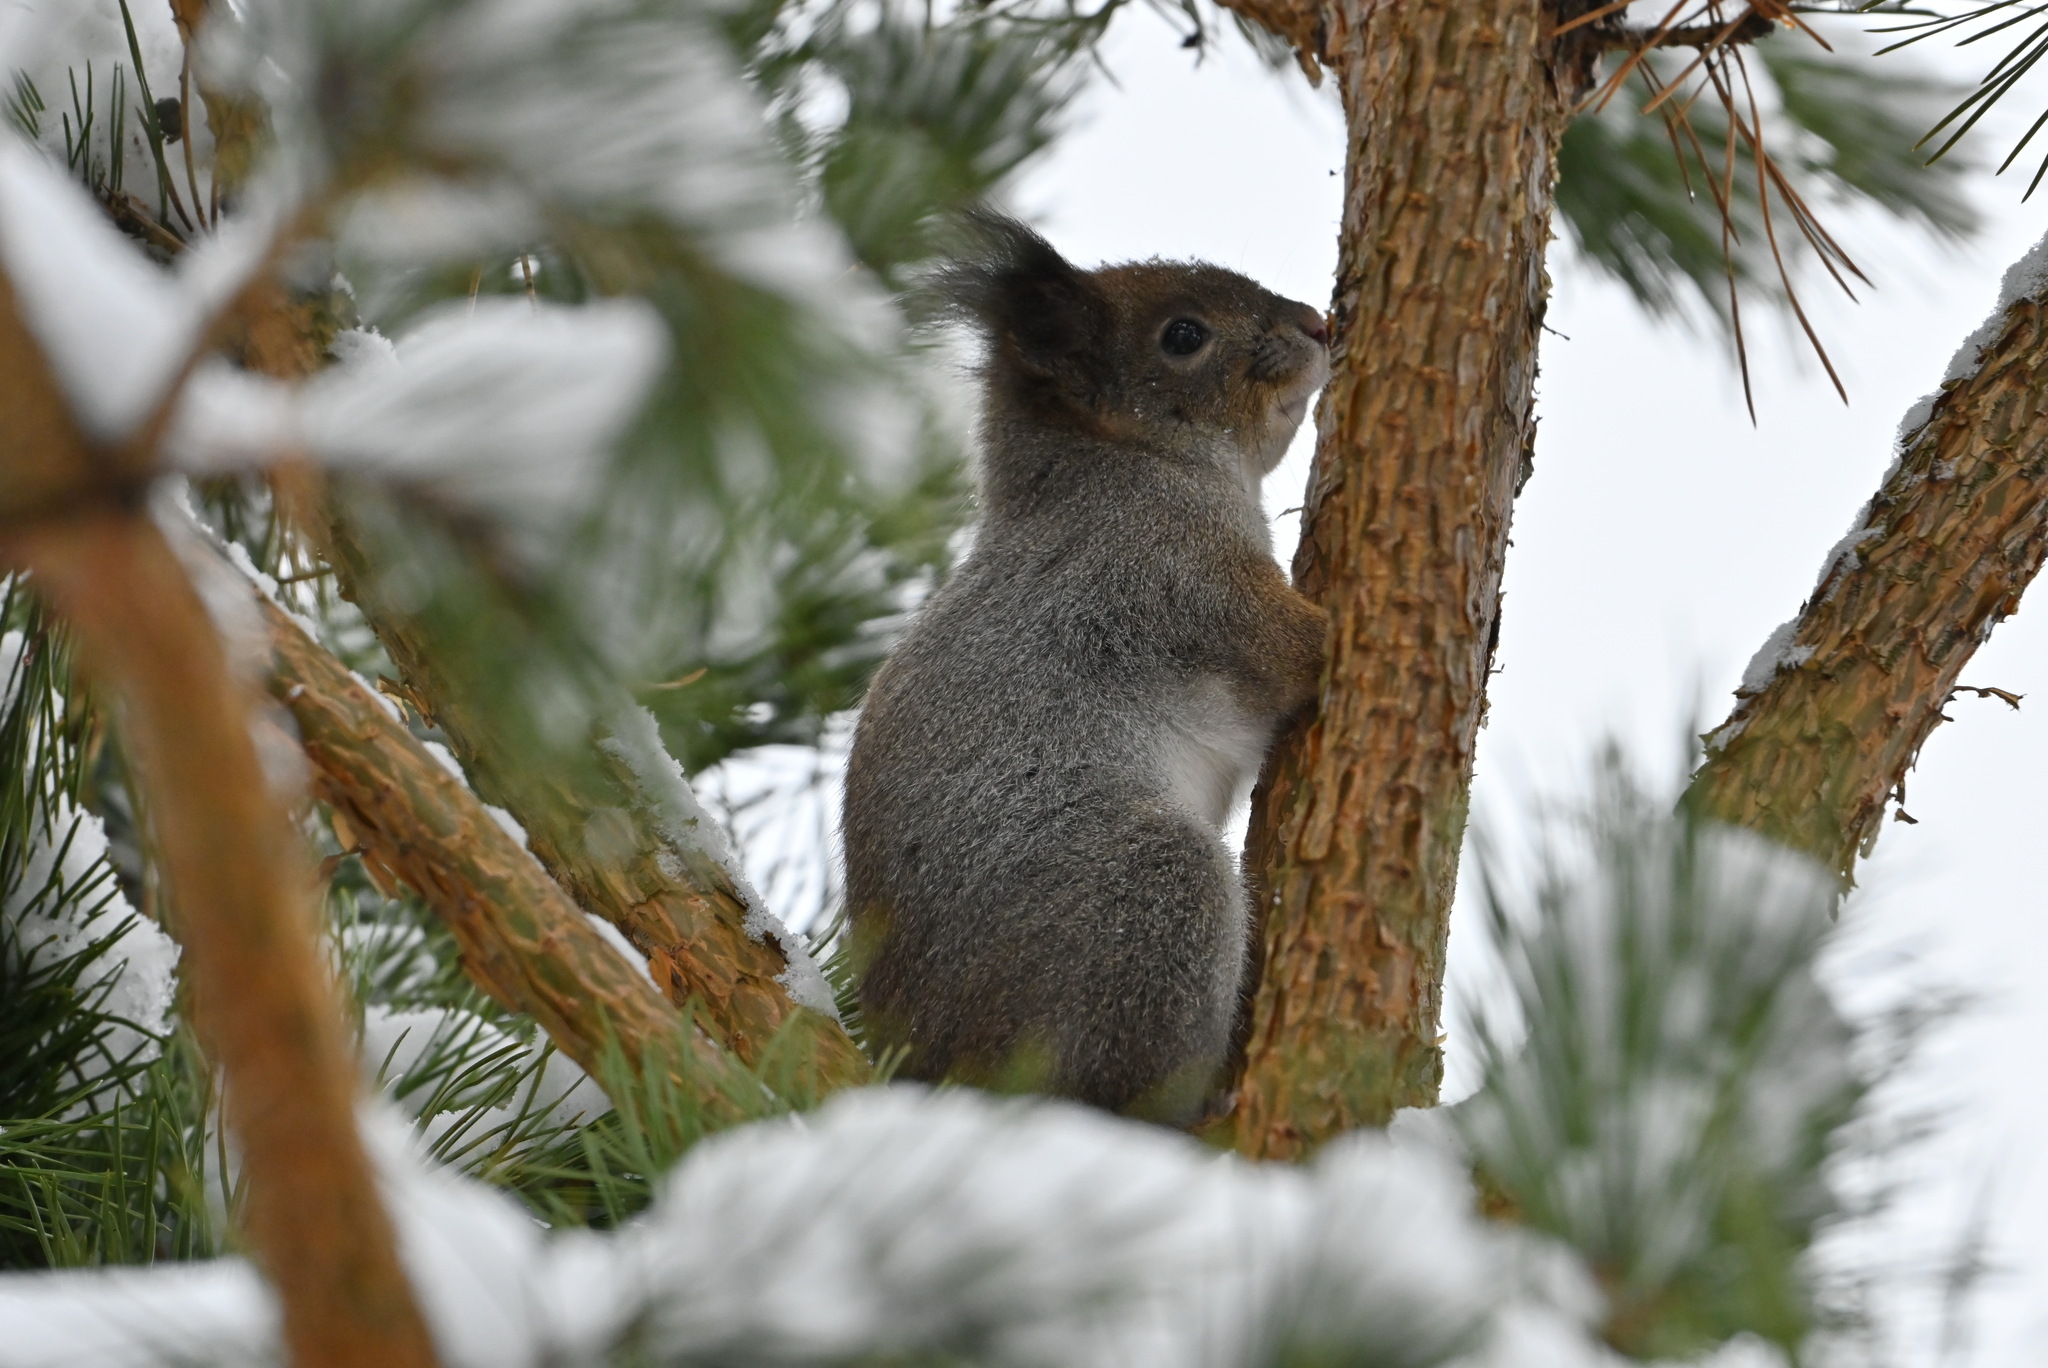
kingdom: Animalia
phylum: Chordata
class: Mammalia
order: Rodentia
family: Sciuridae
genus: Sciurus
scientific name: Sciurus vulgaris
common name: Eurasian red squirrel
